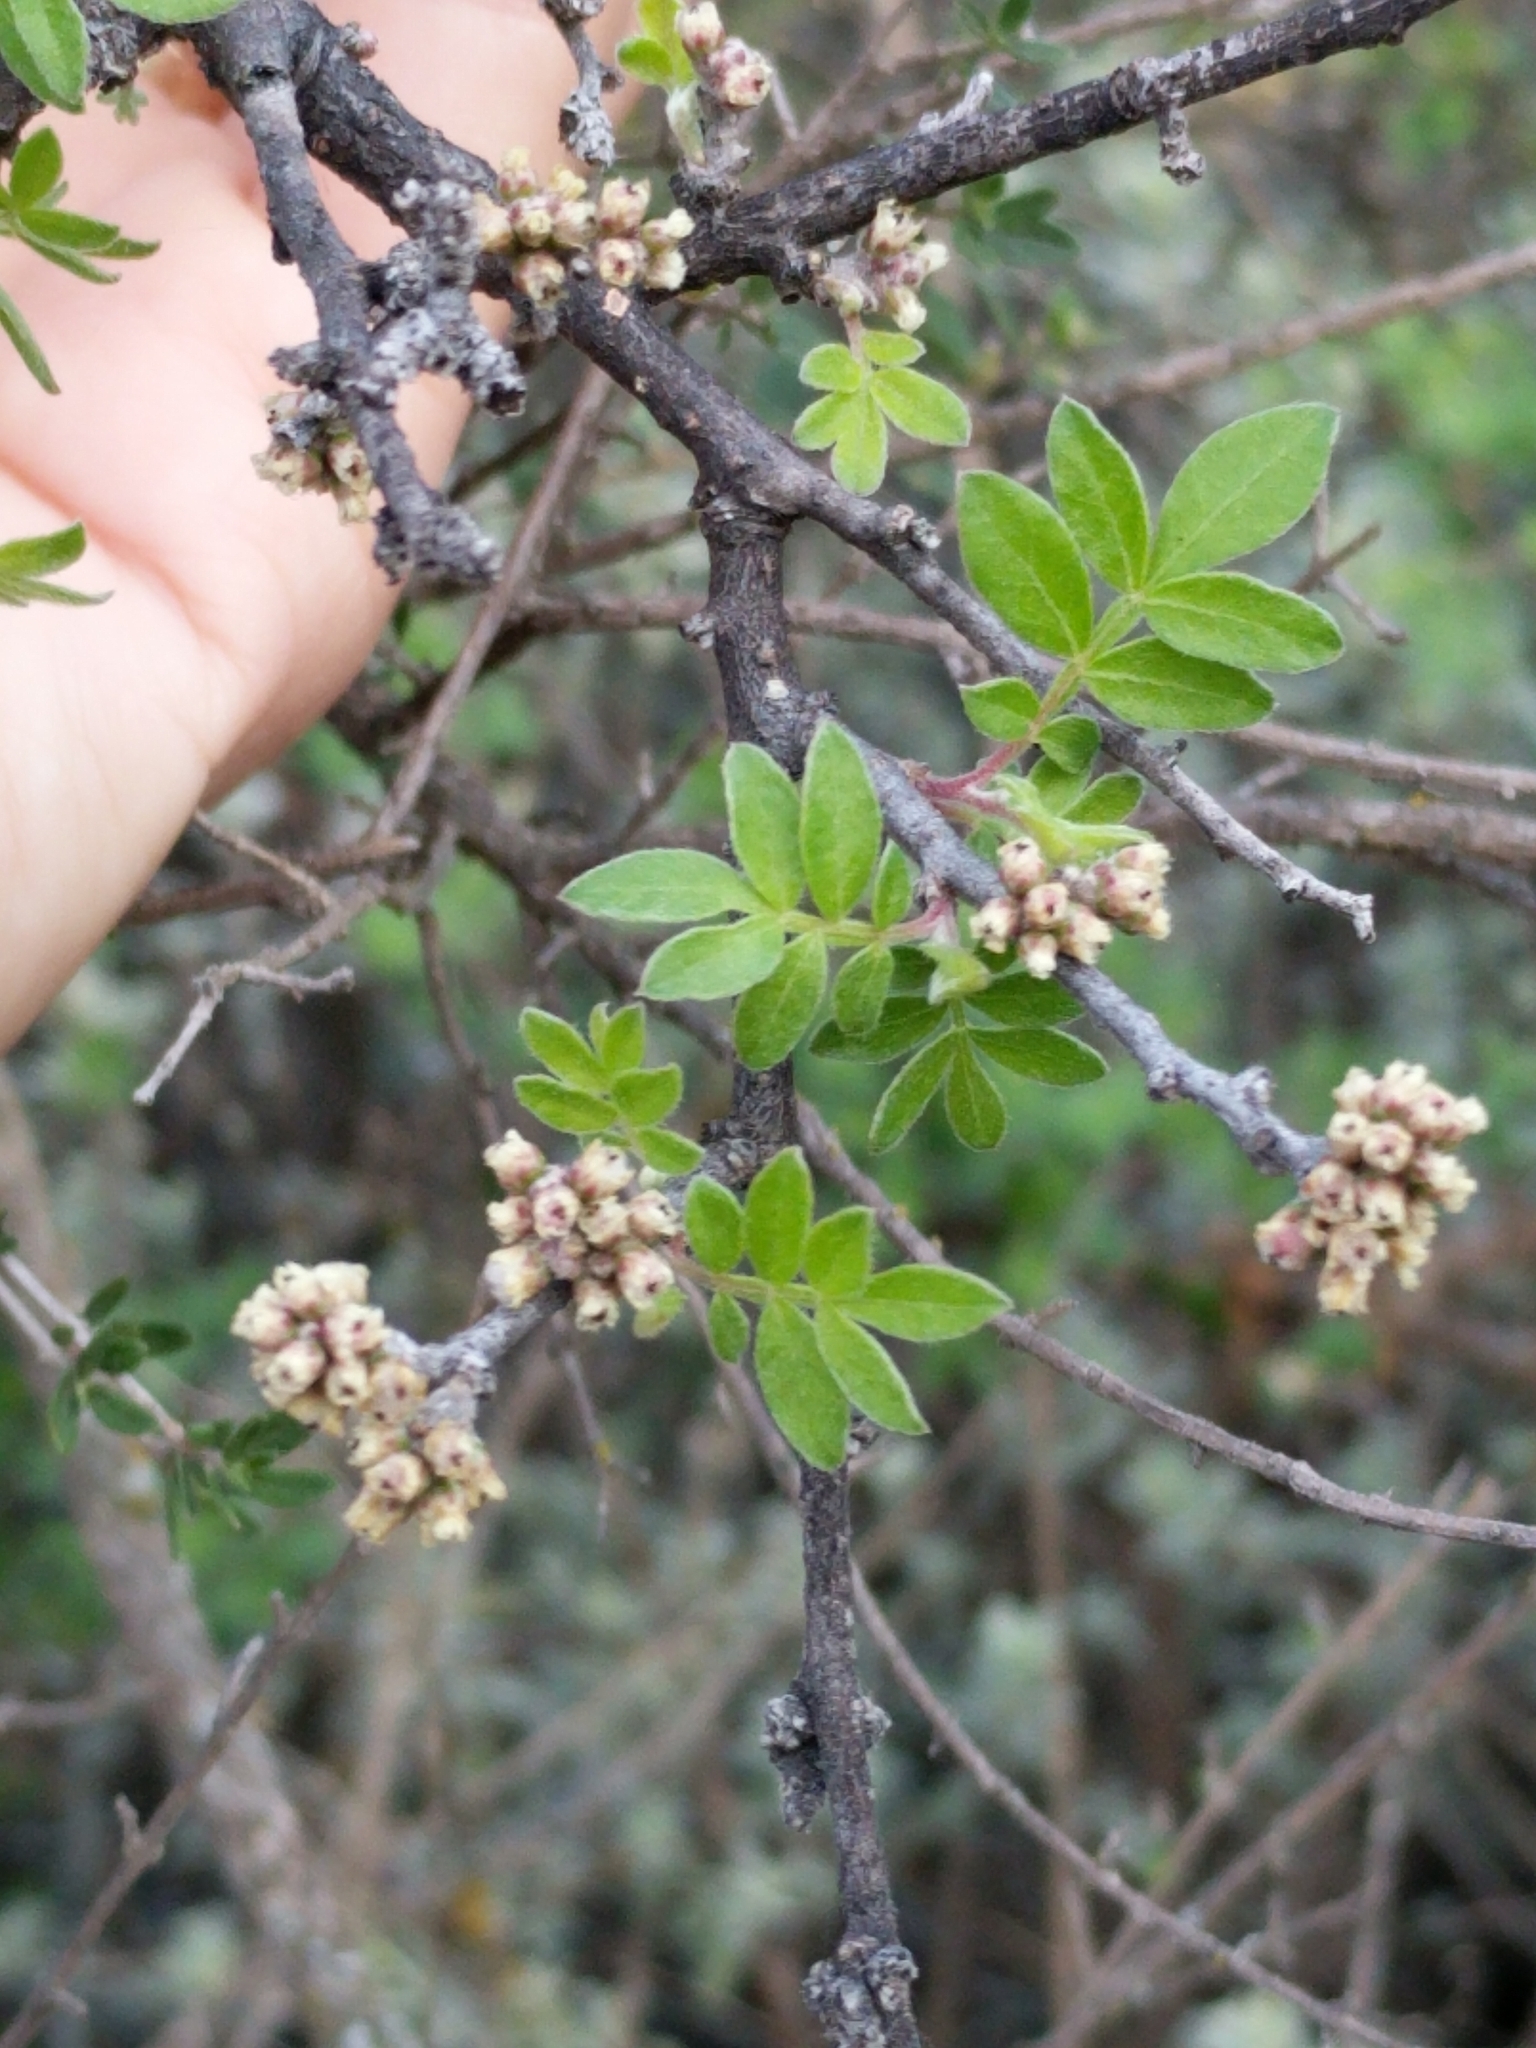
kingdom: Plantae
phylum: Tracheophyta
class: Magnoliopsida
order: Sapindales
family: Anacardiaceae
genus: Rhus
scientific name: Rhus microphylla
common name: Desert sumac
